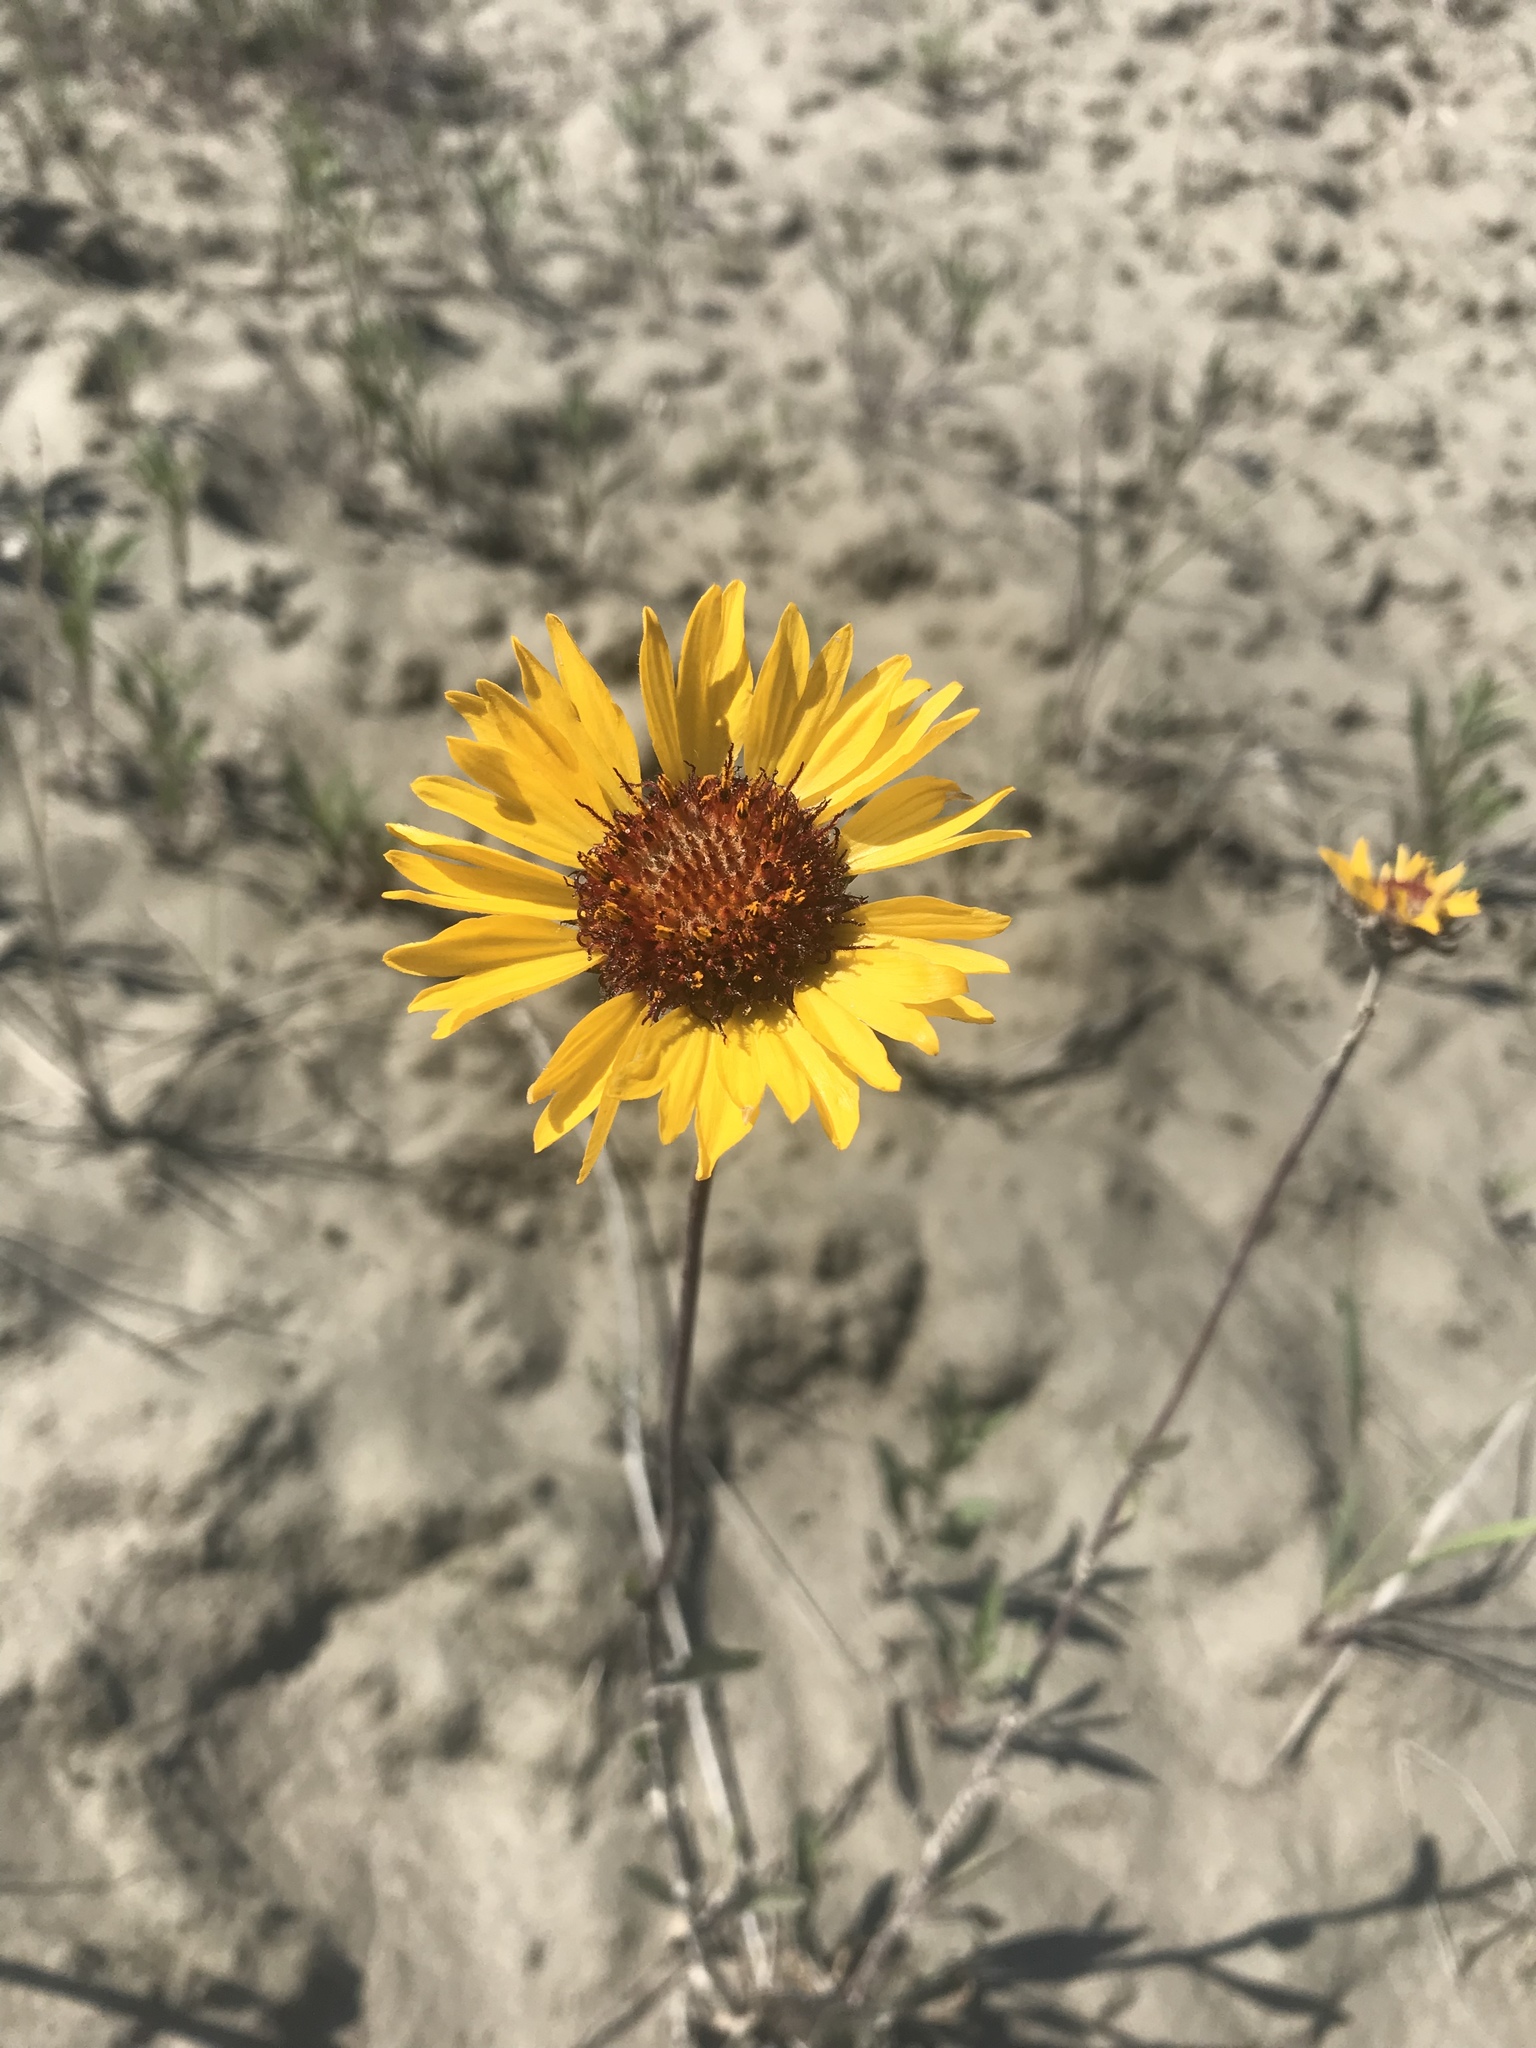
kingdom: Plantae
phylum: Tracheophyta
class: Magnoliopsida
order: Asterales
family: Asteraceae
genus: Gaillardia
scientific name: Gaillardia aristata
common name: Blanket-flower
